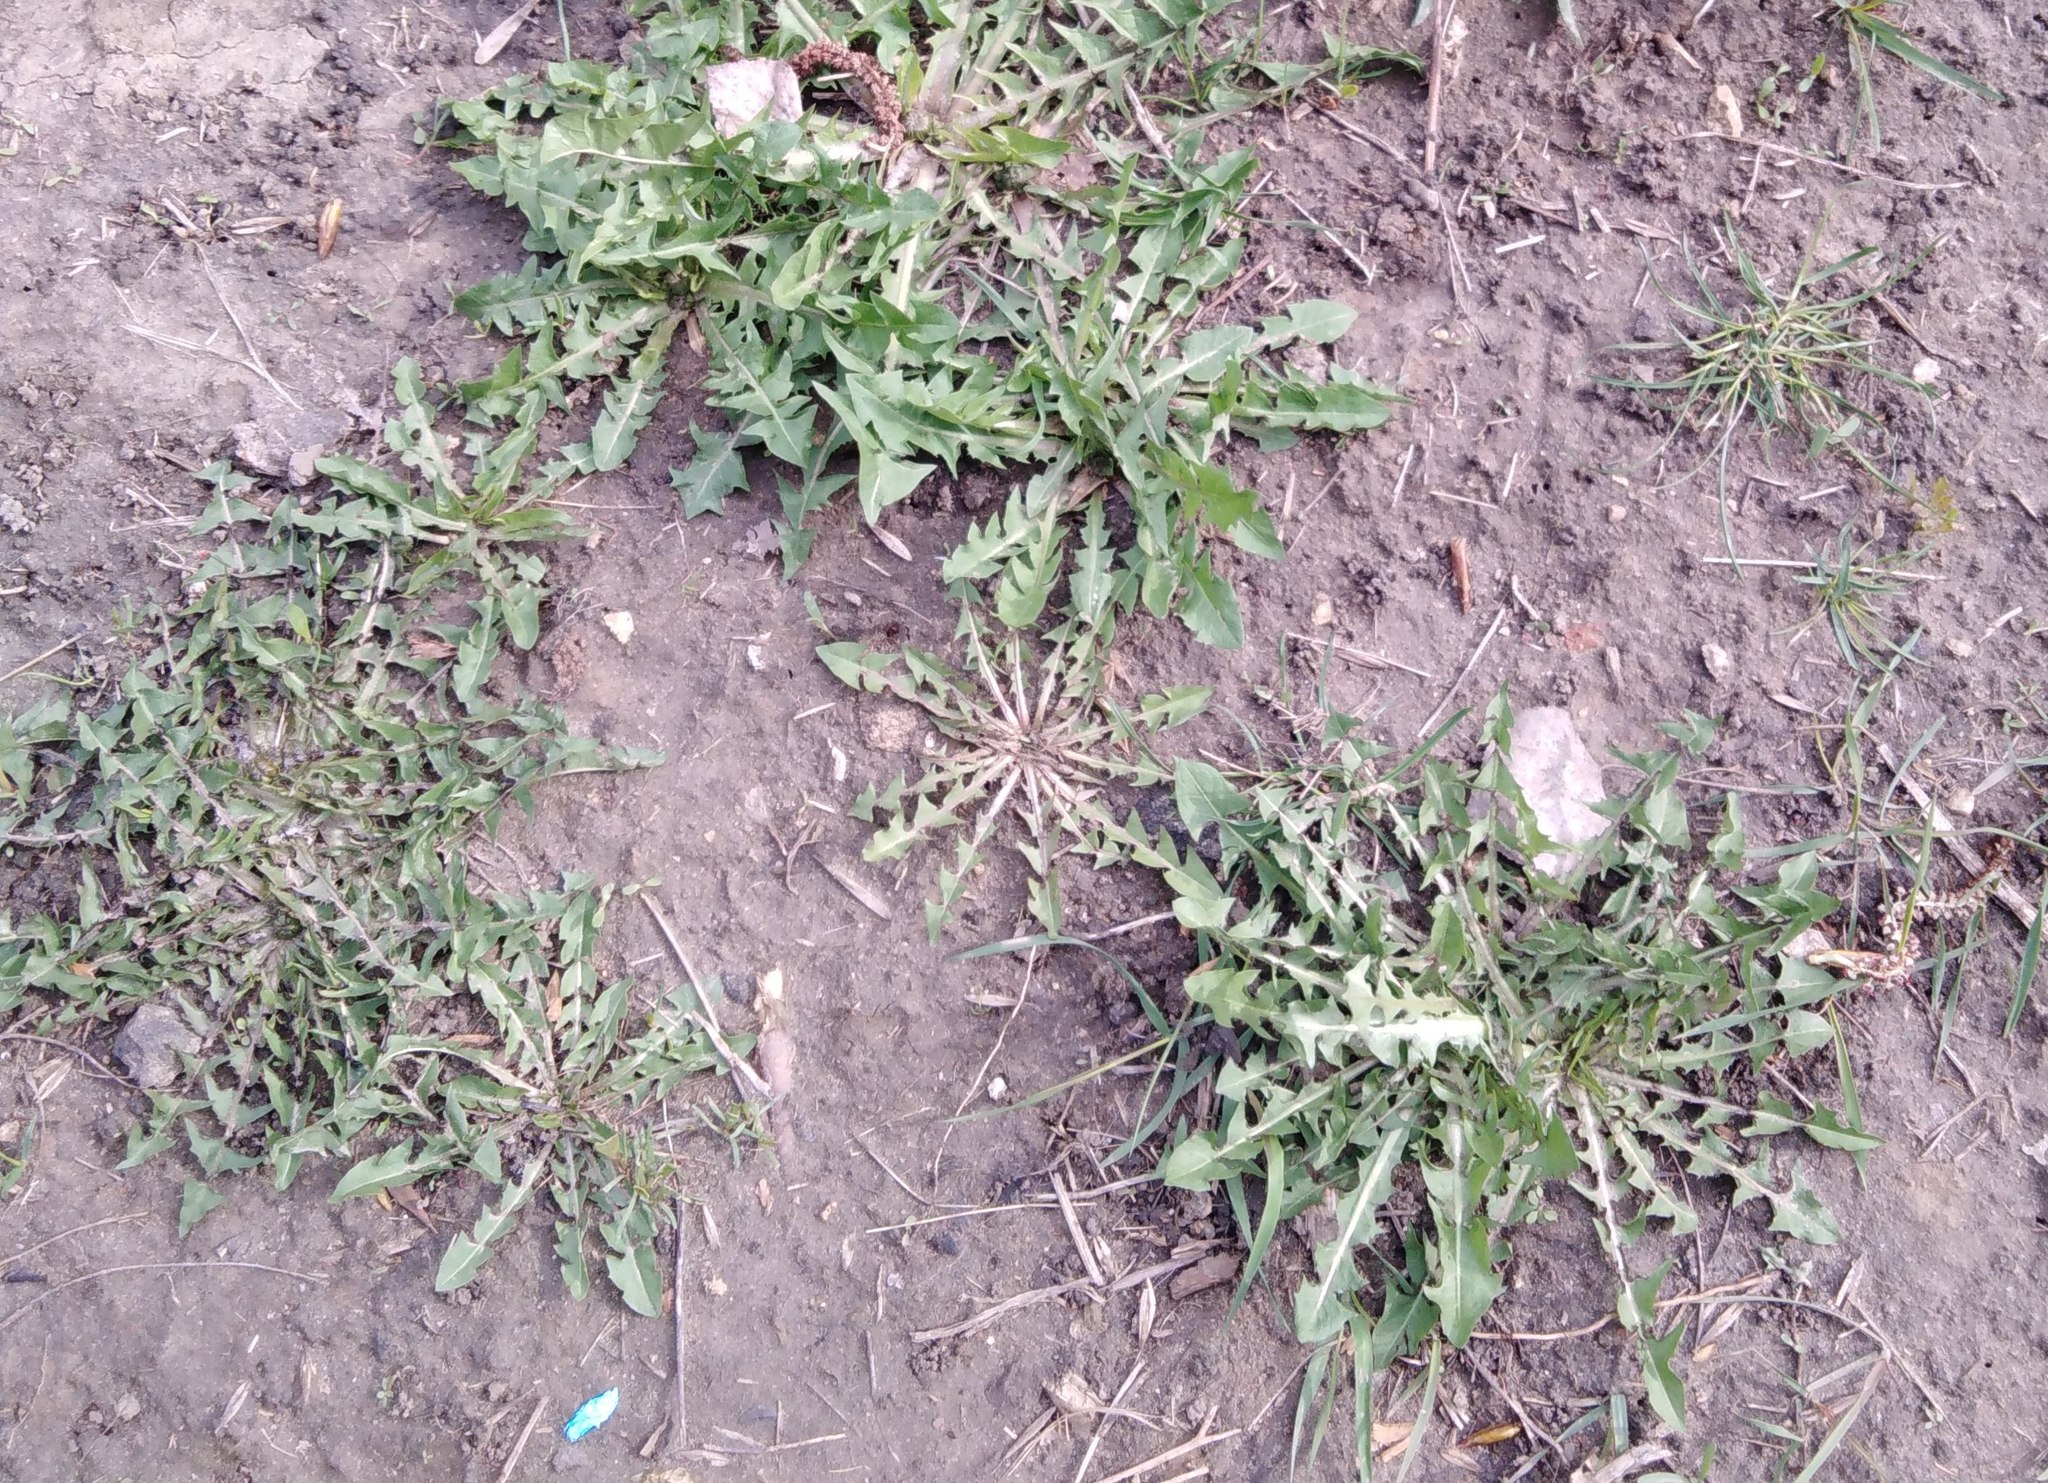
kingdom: Plantae
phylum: Tracheophyta
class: Magnoliopsida
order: Asterales
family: Asteraceae
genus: Taraxacum
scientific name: Taraxacum officinale
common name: Common dandelion
